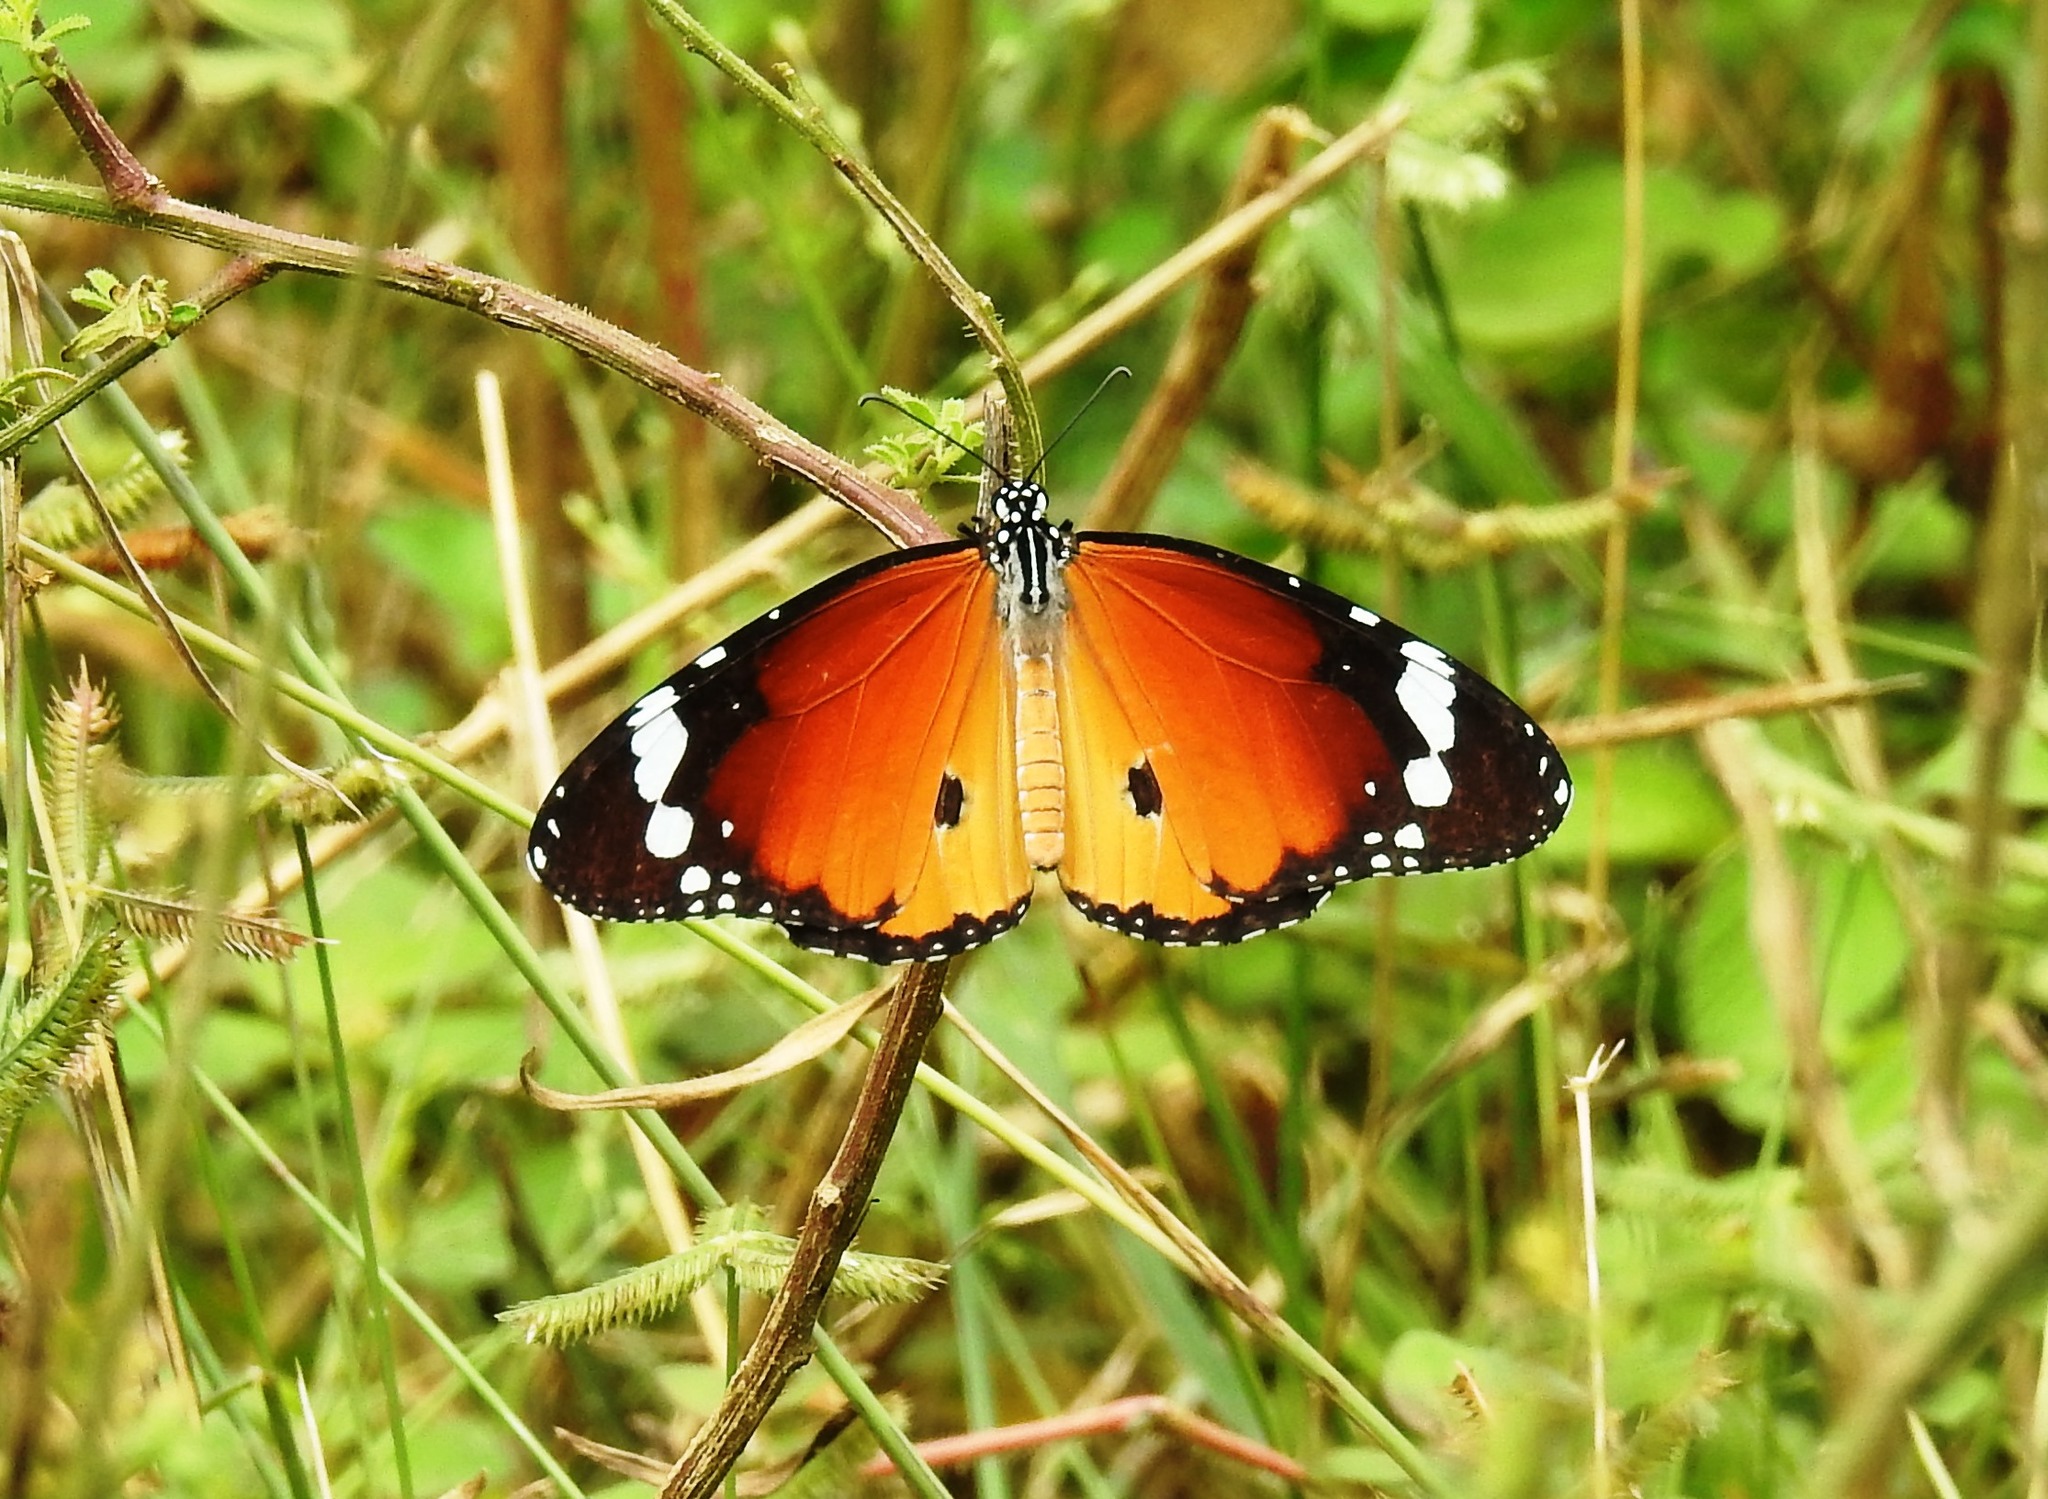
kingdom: Animalia
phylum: Arthropoda
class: Insecta
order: Lepidoptera
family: Nymphalidae
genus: Danaus
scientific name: Danaus chrysippus
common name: Plain tiger
